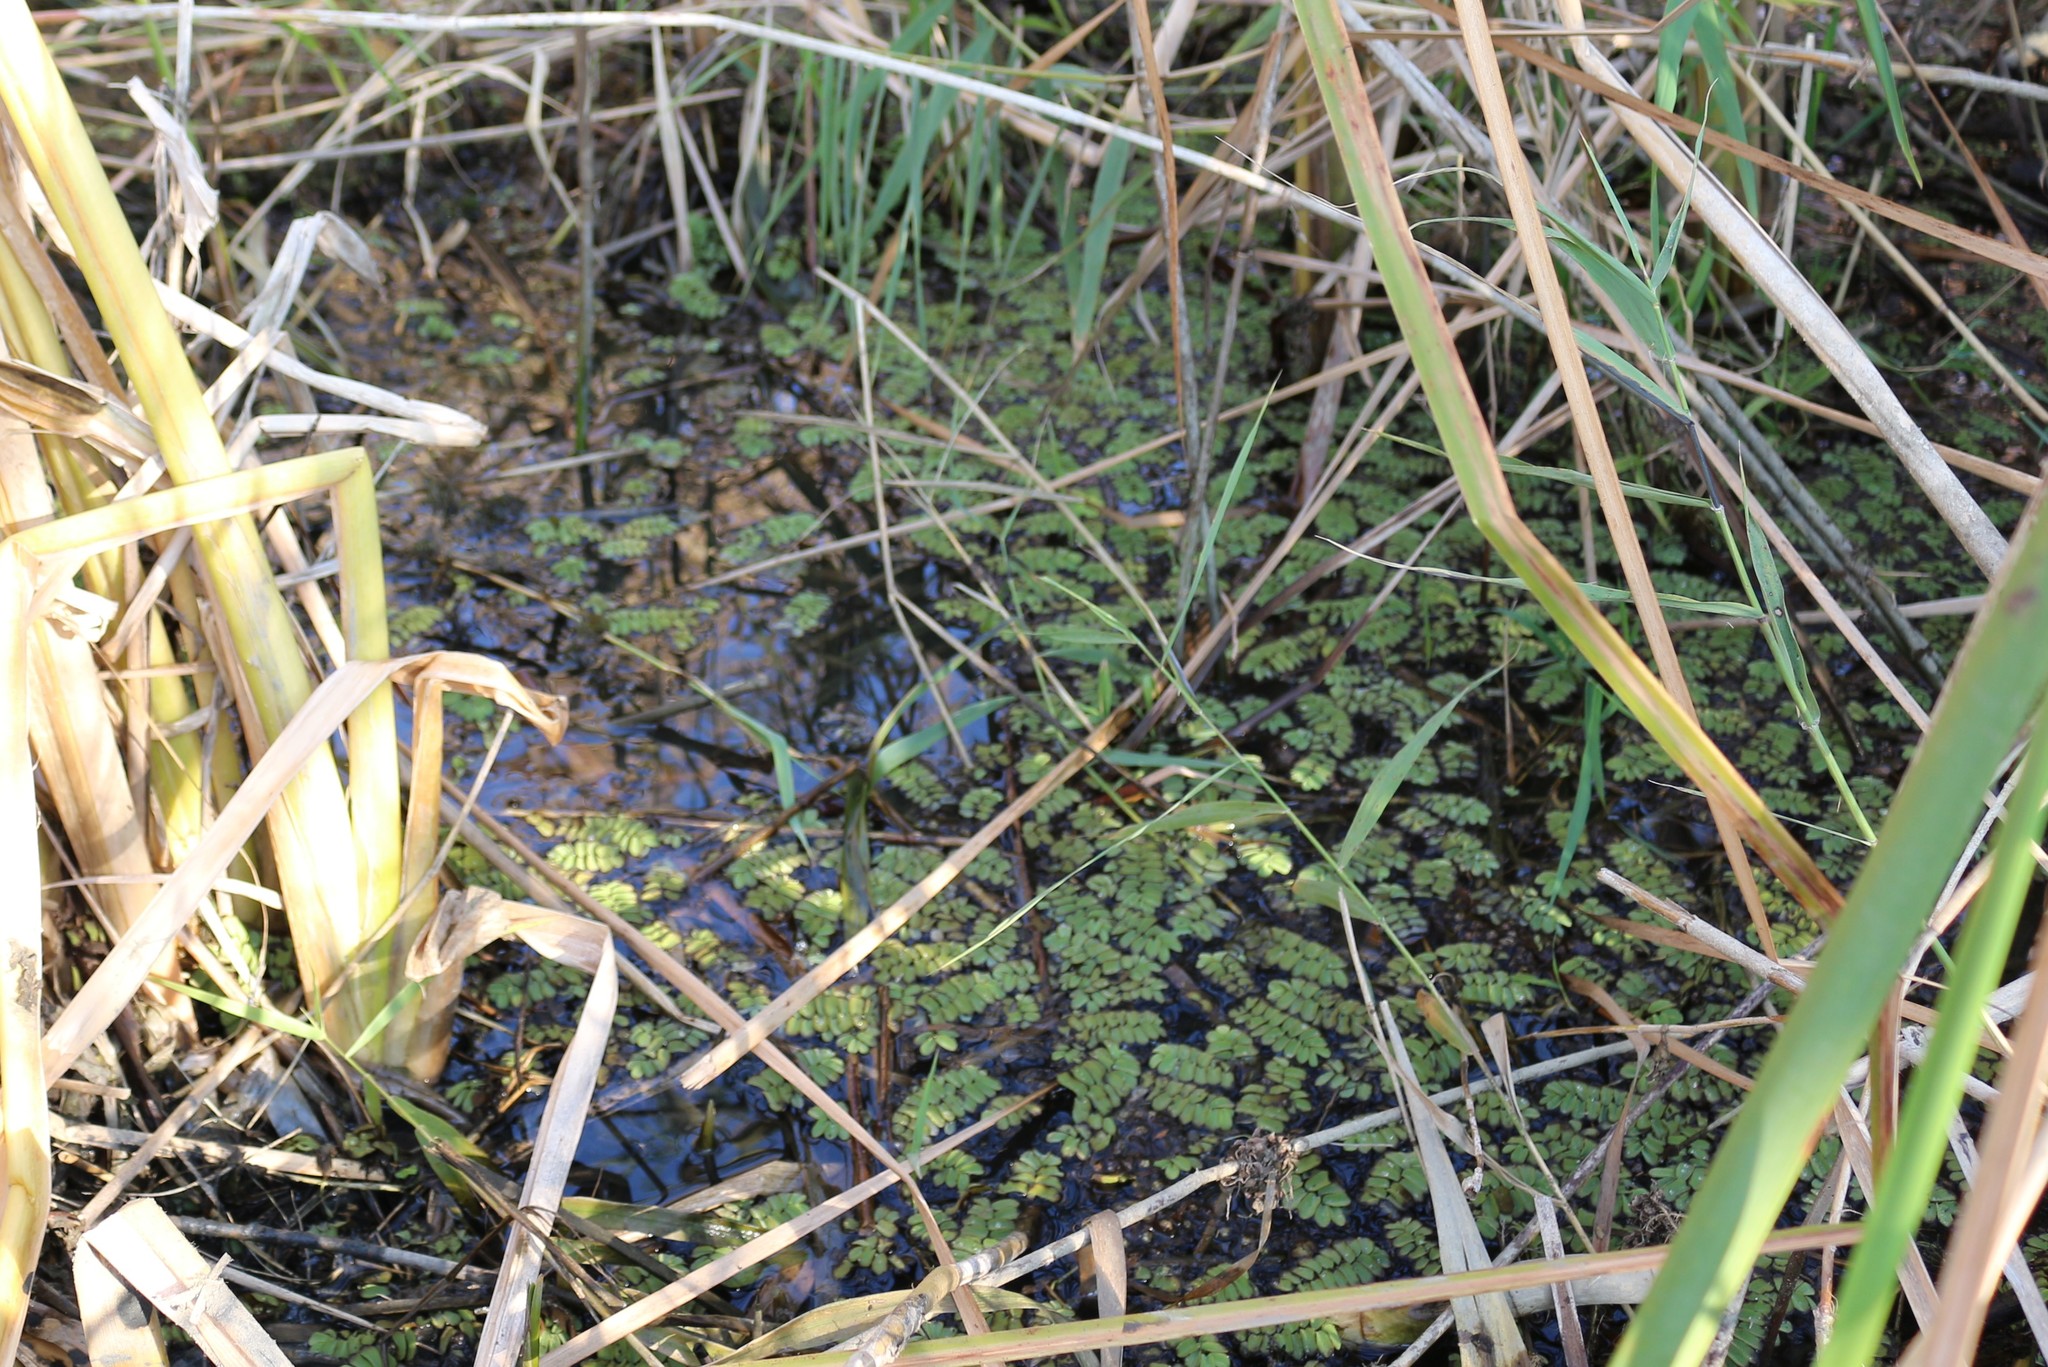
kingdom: Plantae
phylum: Tracheophyta
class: Polypodiopsida
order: Salviniales
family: Salviniaceae
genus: Salvinia
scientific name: Salvinia natans
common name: Floating fern
